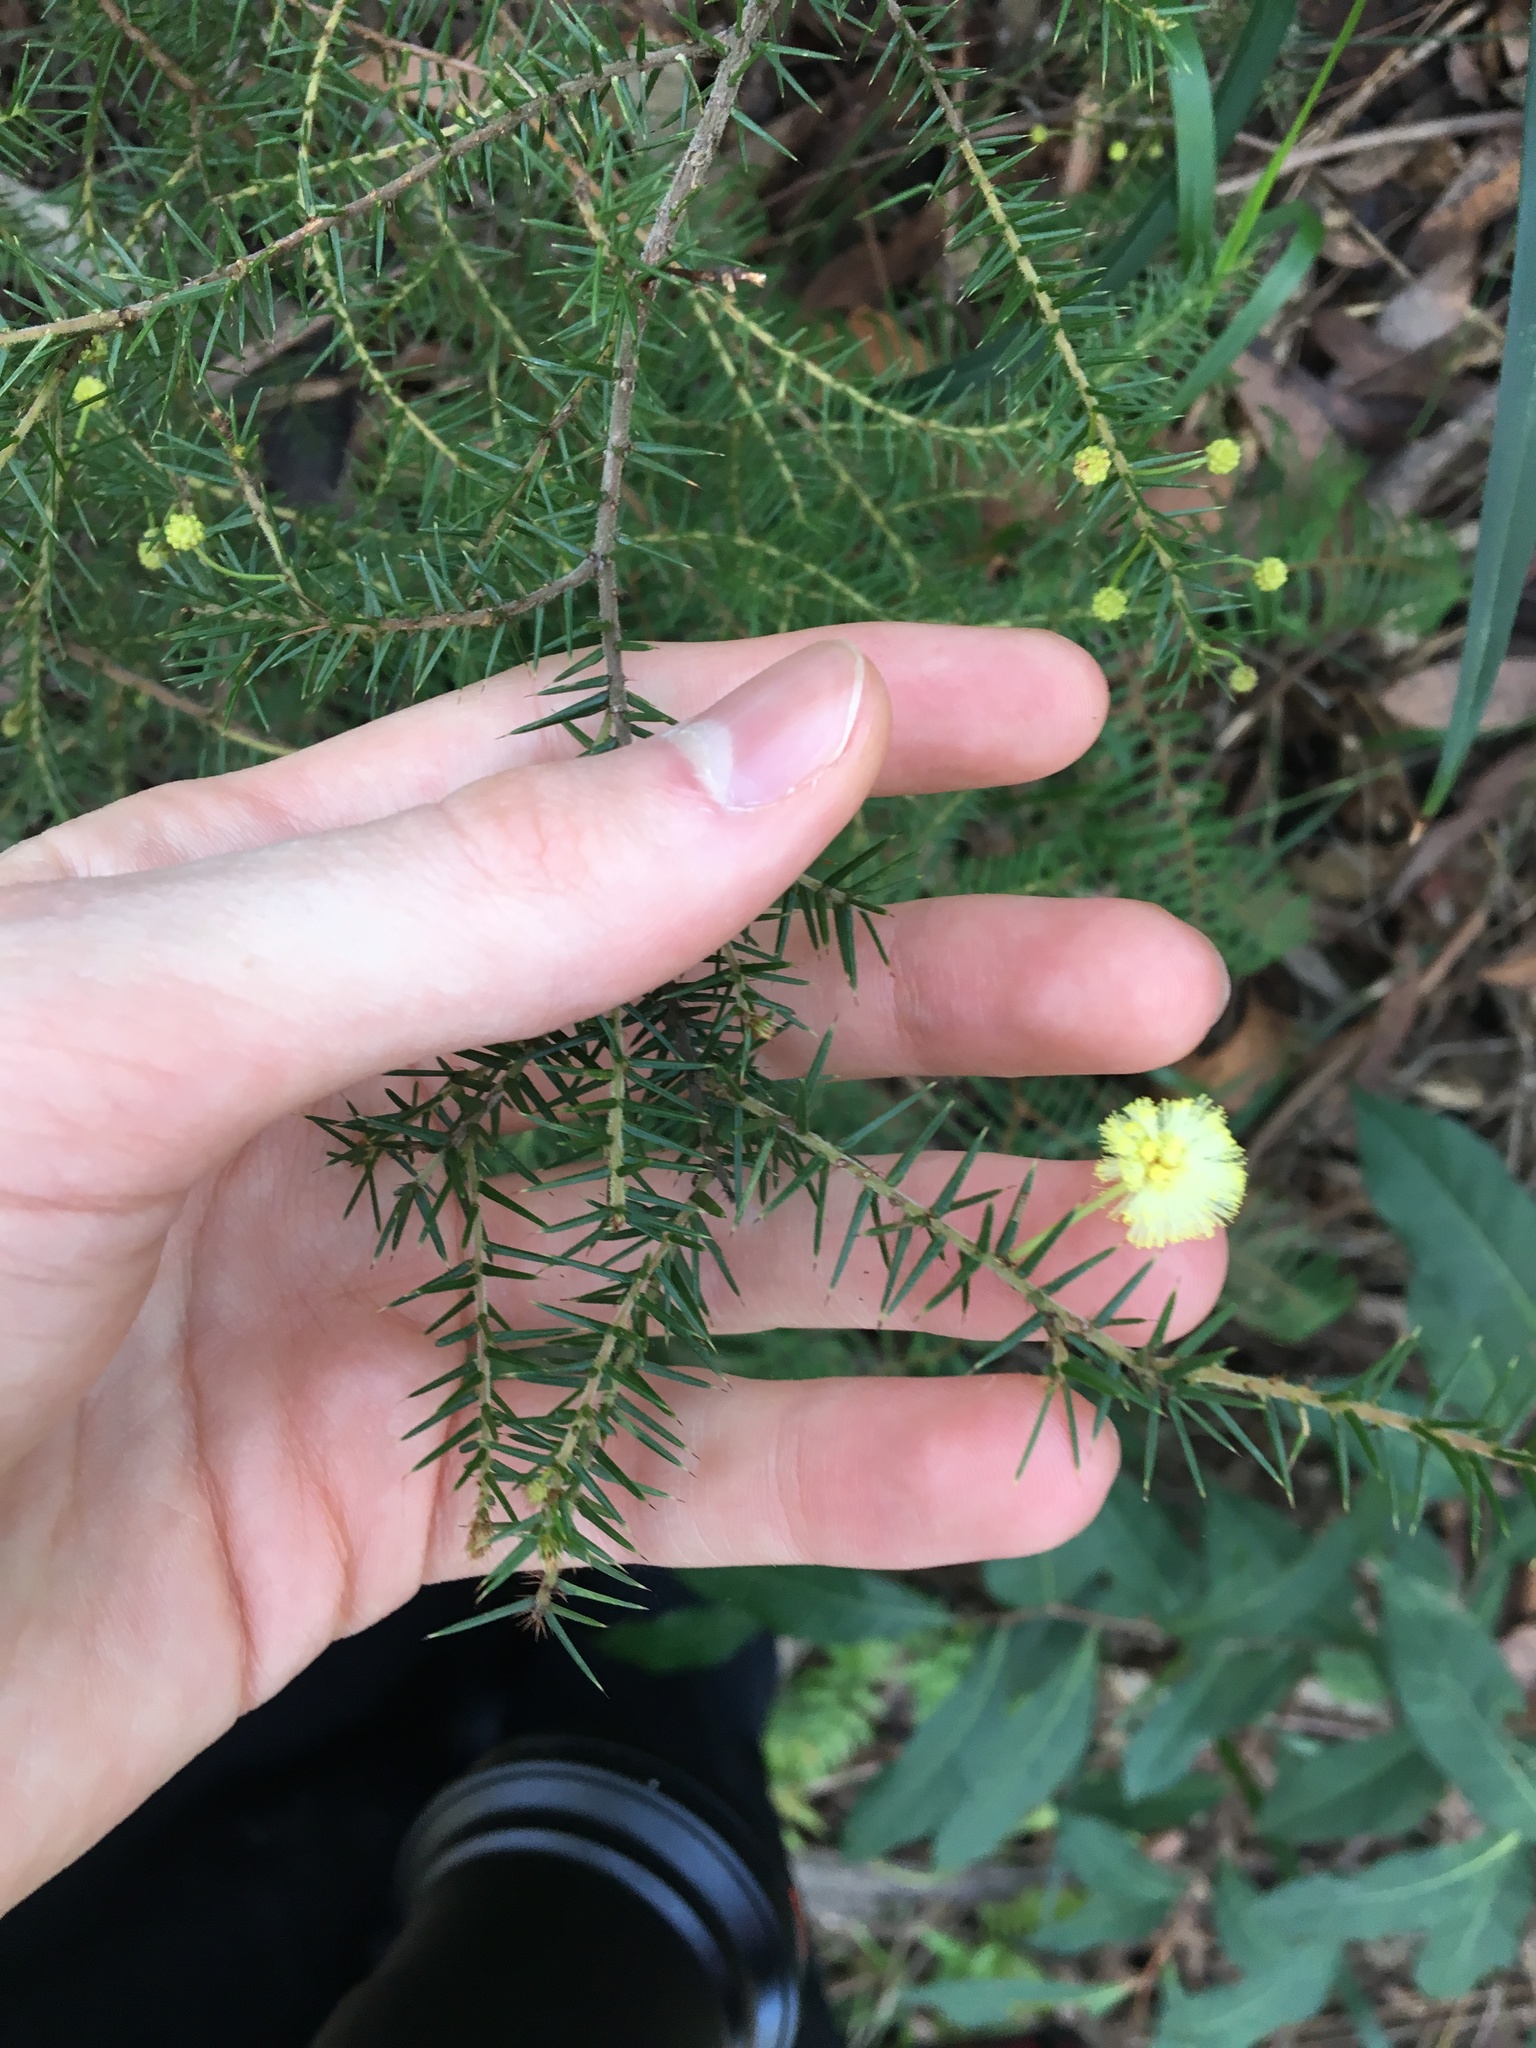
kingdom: Plantae
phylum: Tracheophyta
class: Magnoliopsida
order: Fabales
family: Fabaceae
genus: Acacia
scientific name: Acacia ulicifolia
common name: Juniper wattle
